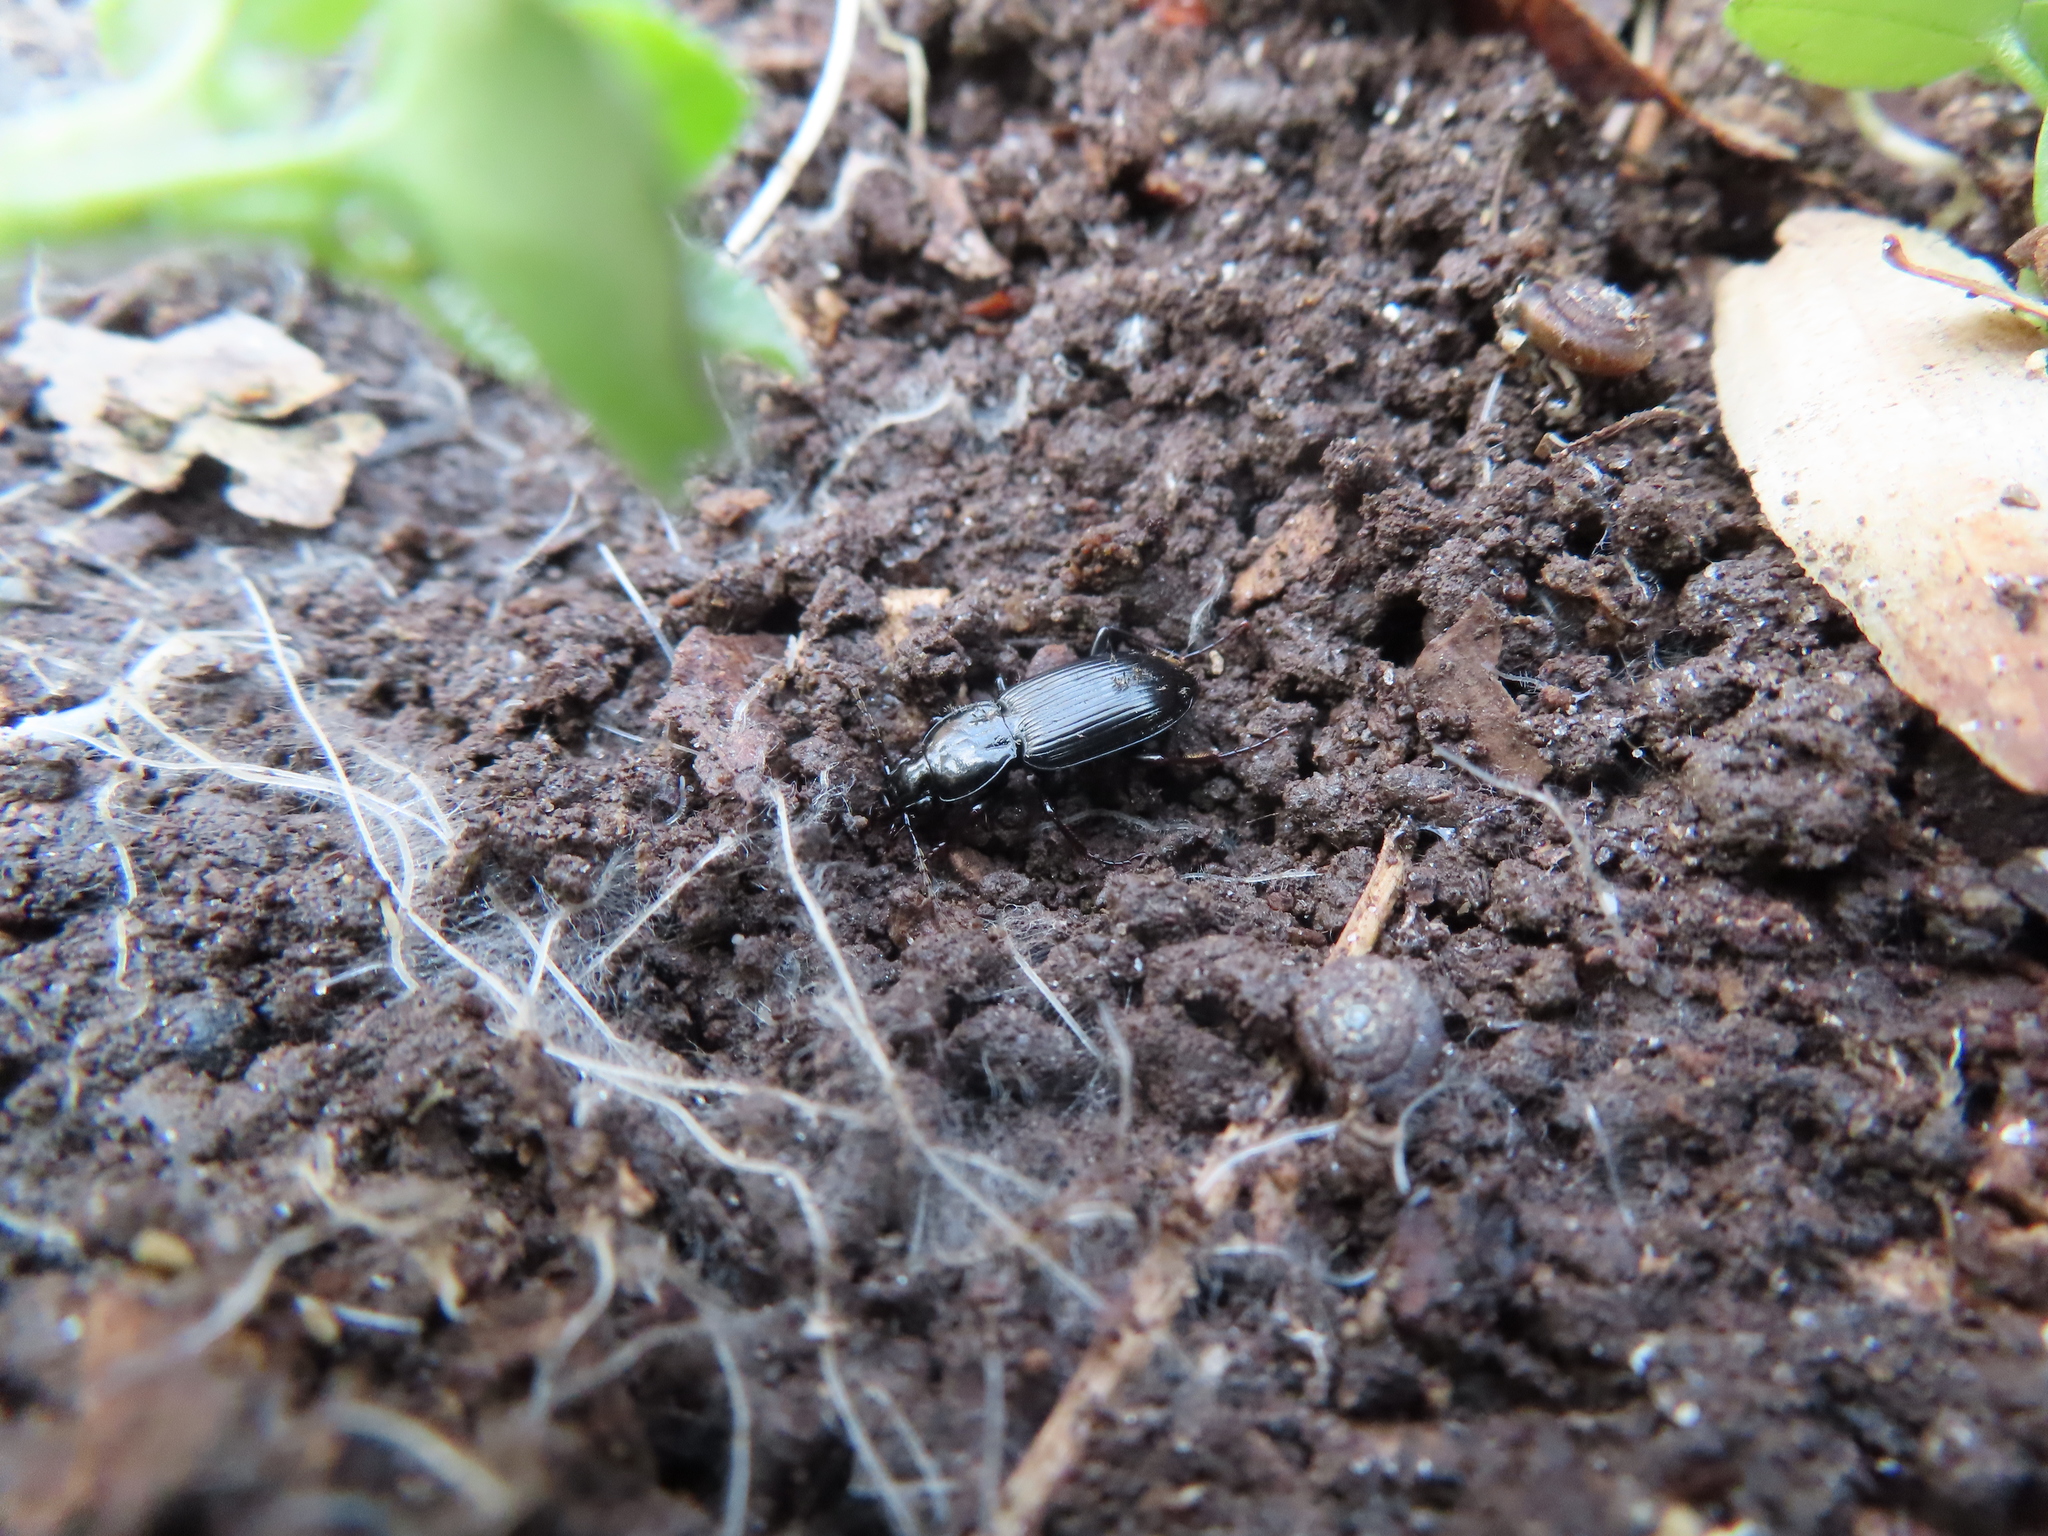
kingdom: Animalia
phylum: Mollusca
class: Gastropoda
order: Stylommatophora
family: Discidae
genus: Discus
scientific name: Discus rotundatus
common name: Rounded snail
